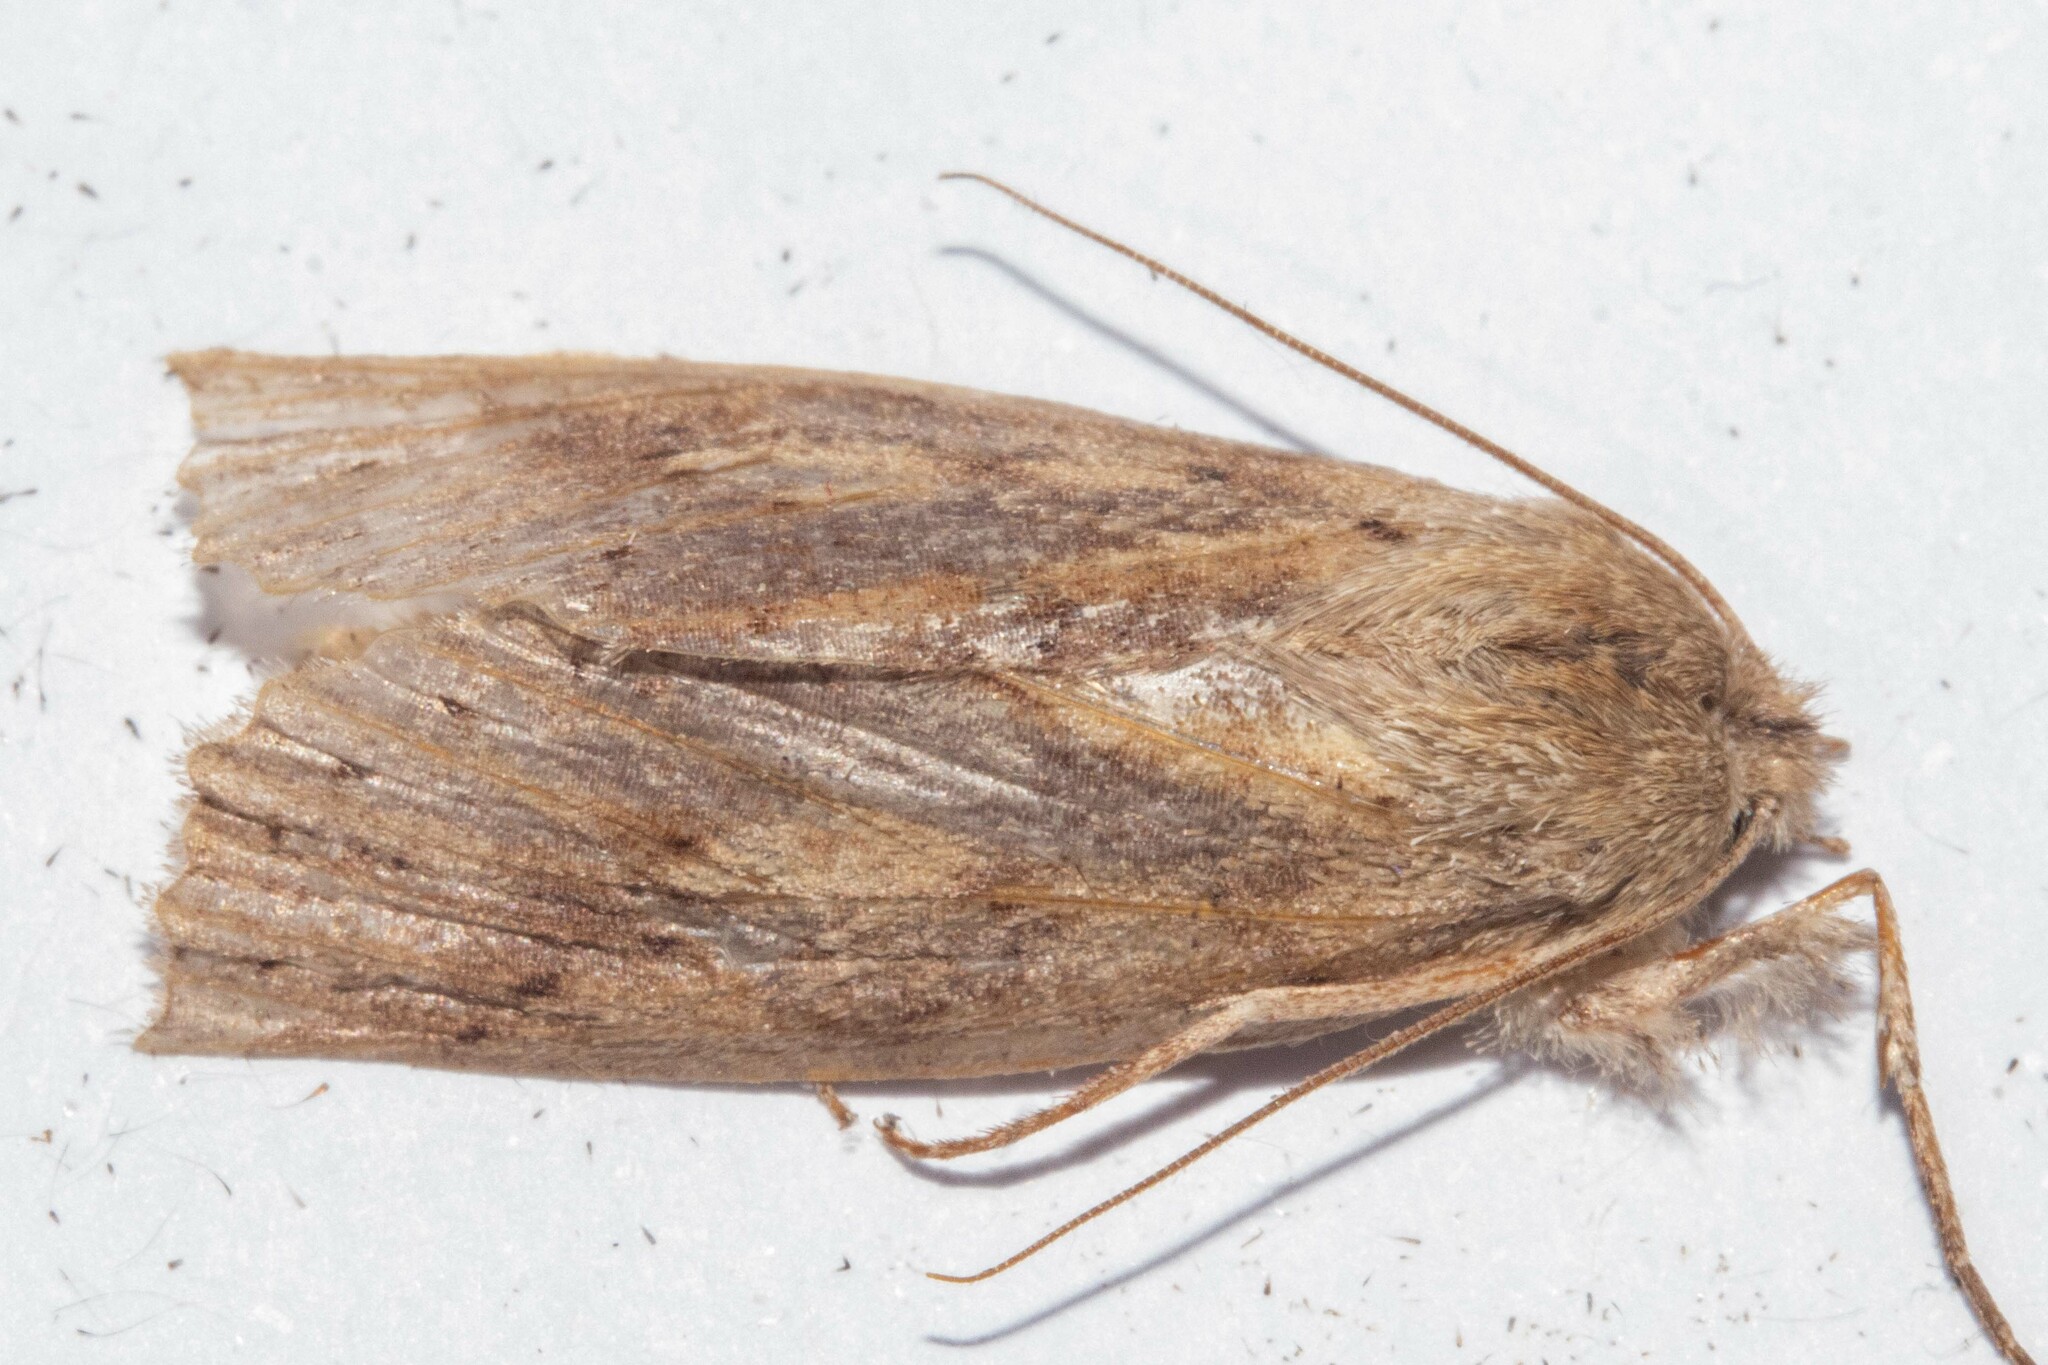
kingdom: Animalia
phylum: Arthropoda
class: Insecta
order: Lepidoptera
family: Geometridae
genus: Declana
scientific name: Declana leptomera
